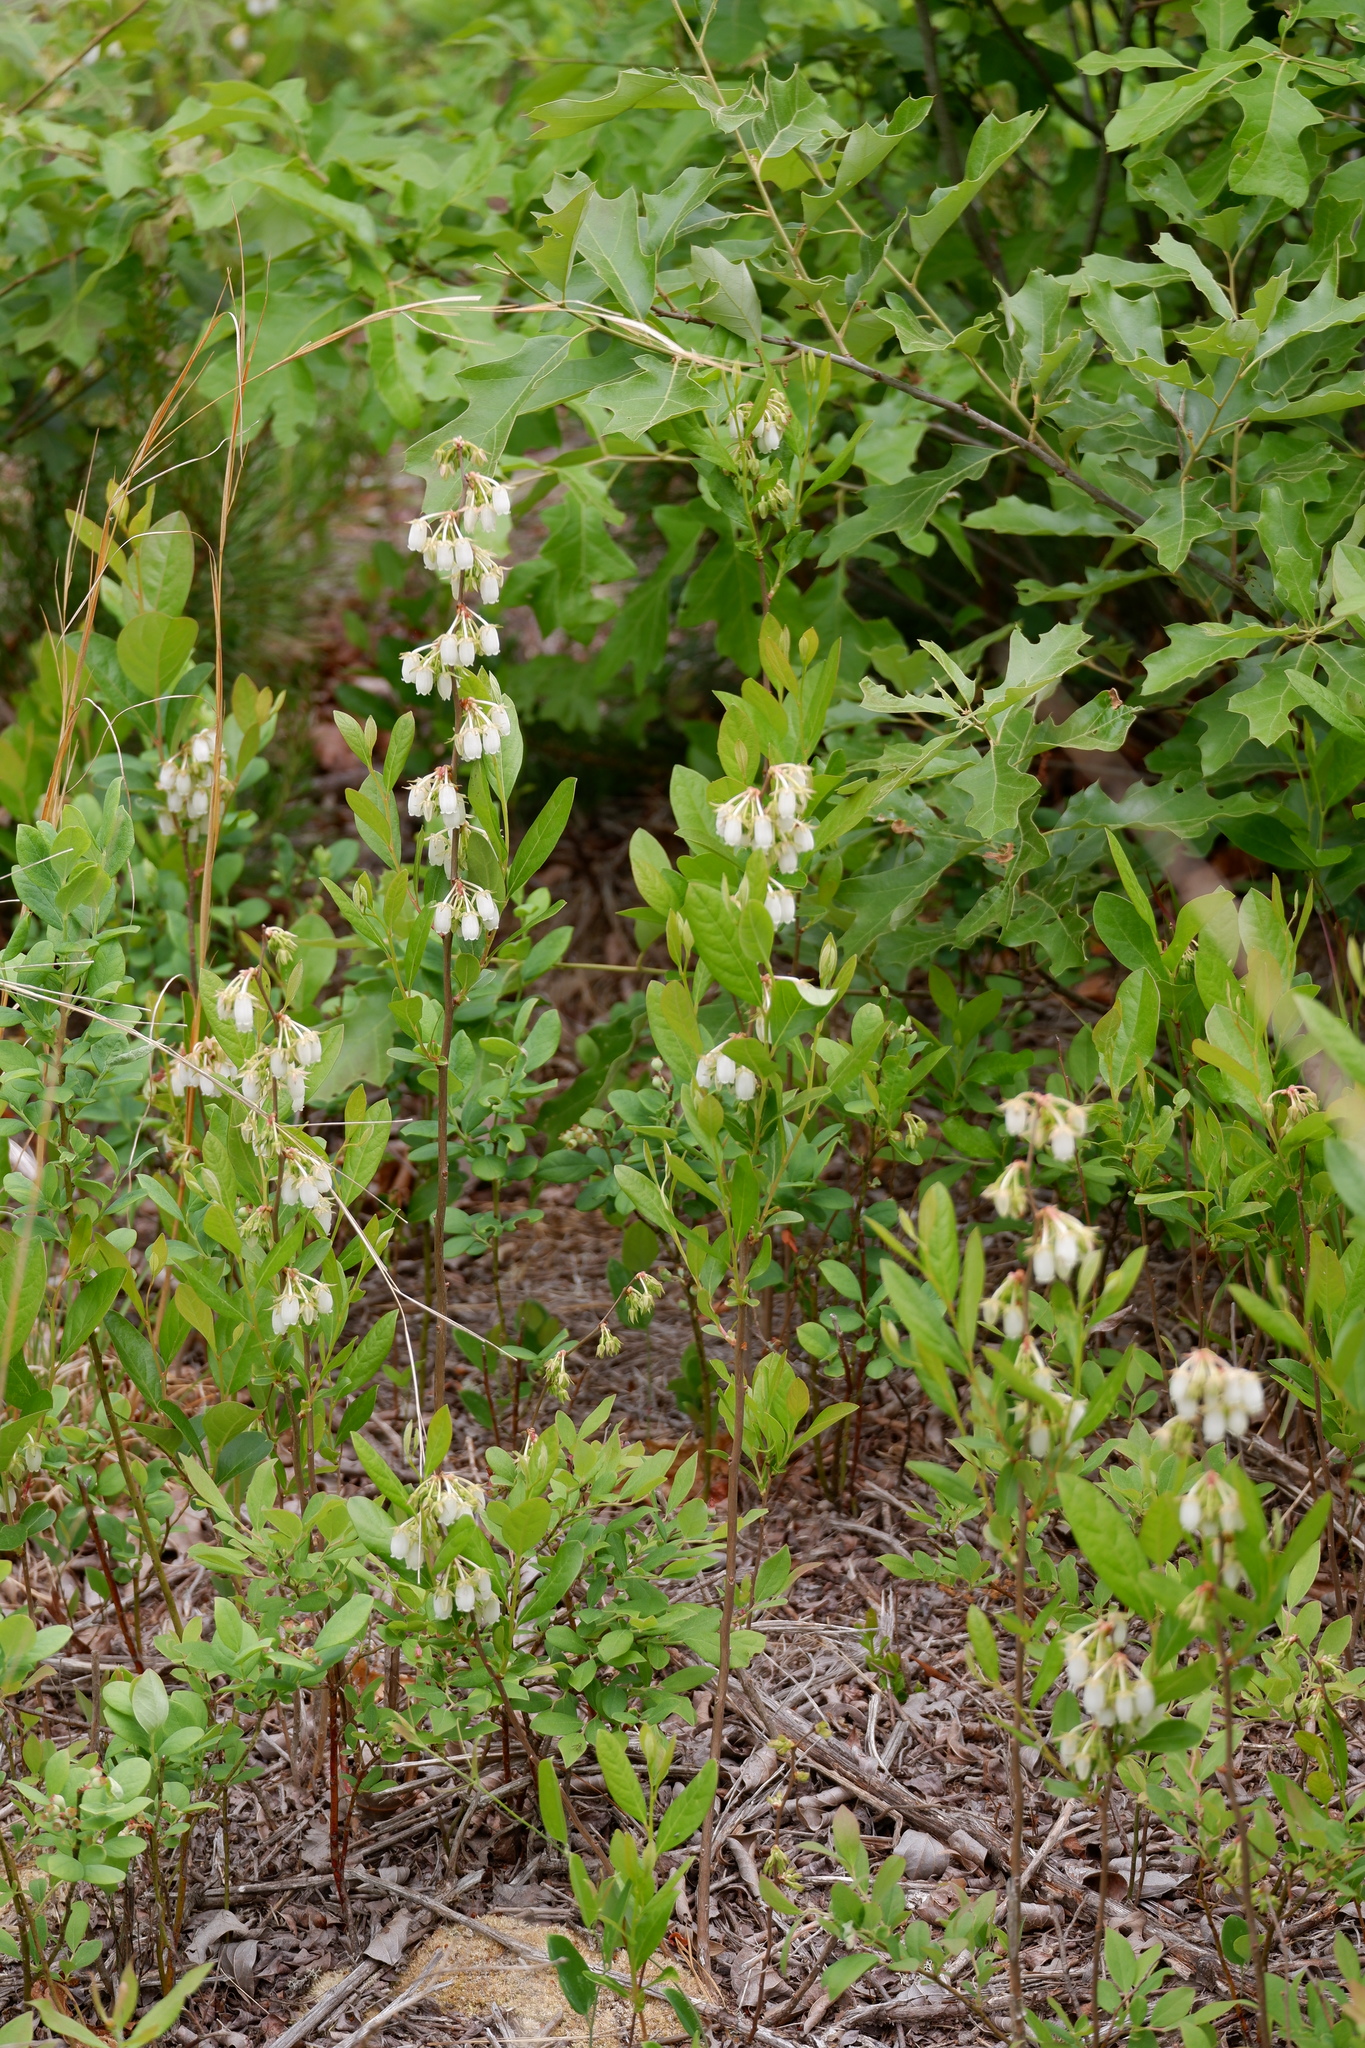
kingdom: Plantae
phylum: Tracheophyta
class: Magnoliopsida
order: Ericales
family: Ericaceae
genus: Lyonia
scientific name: Lyonia mariana
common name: Staggerbush
